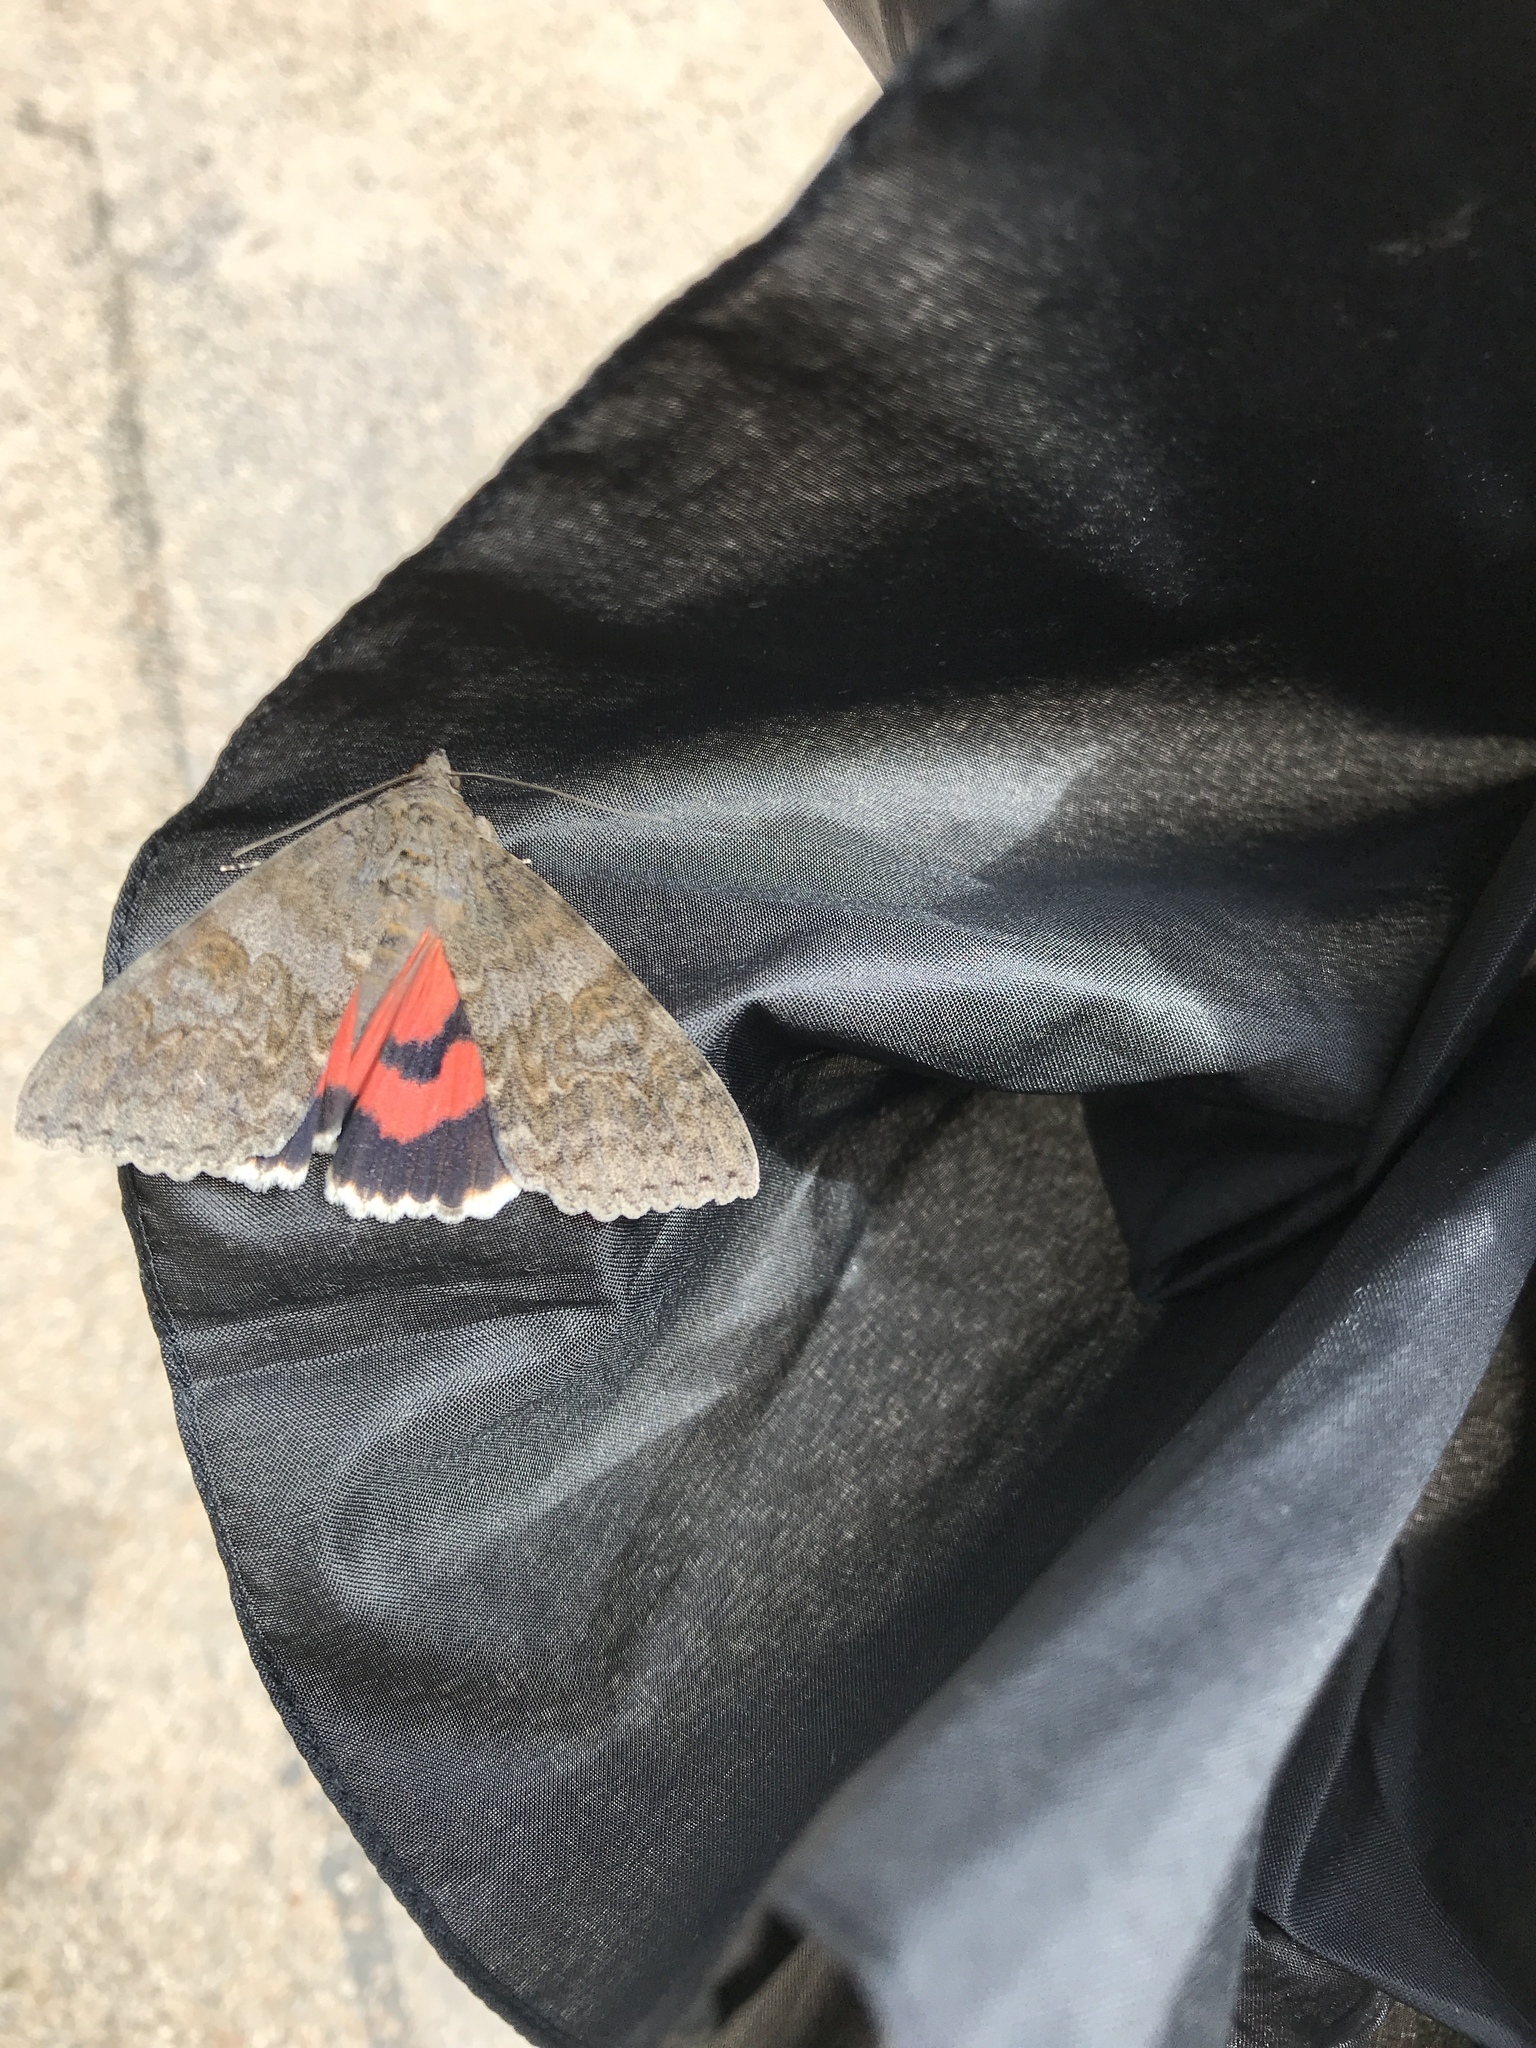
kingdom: Animalia
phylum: Arthropoda
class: Insecta
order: Lepidoptera
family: Erebidae
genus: Catocala
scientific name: Catocala nupta
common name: Red underwing
